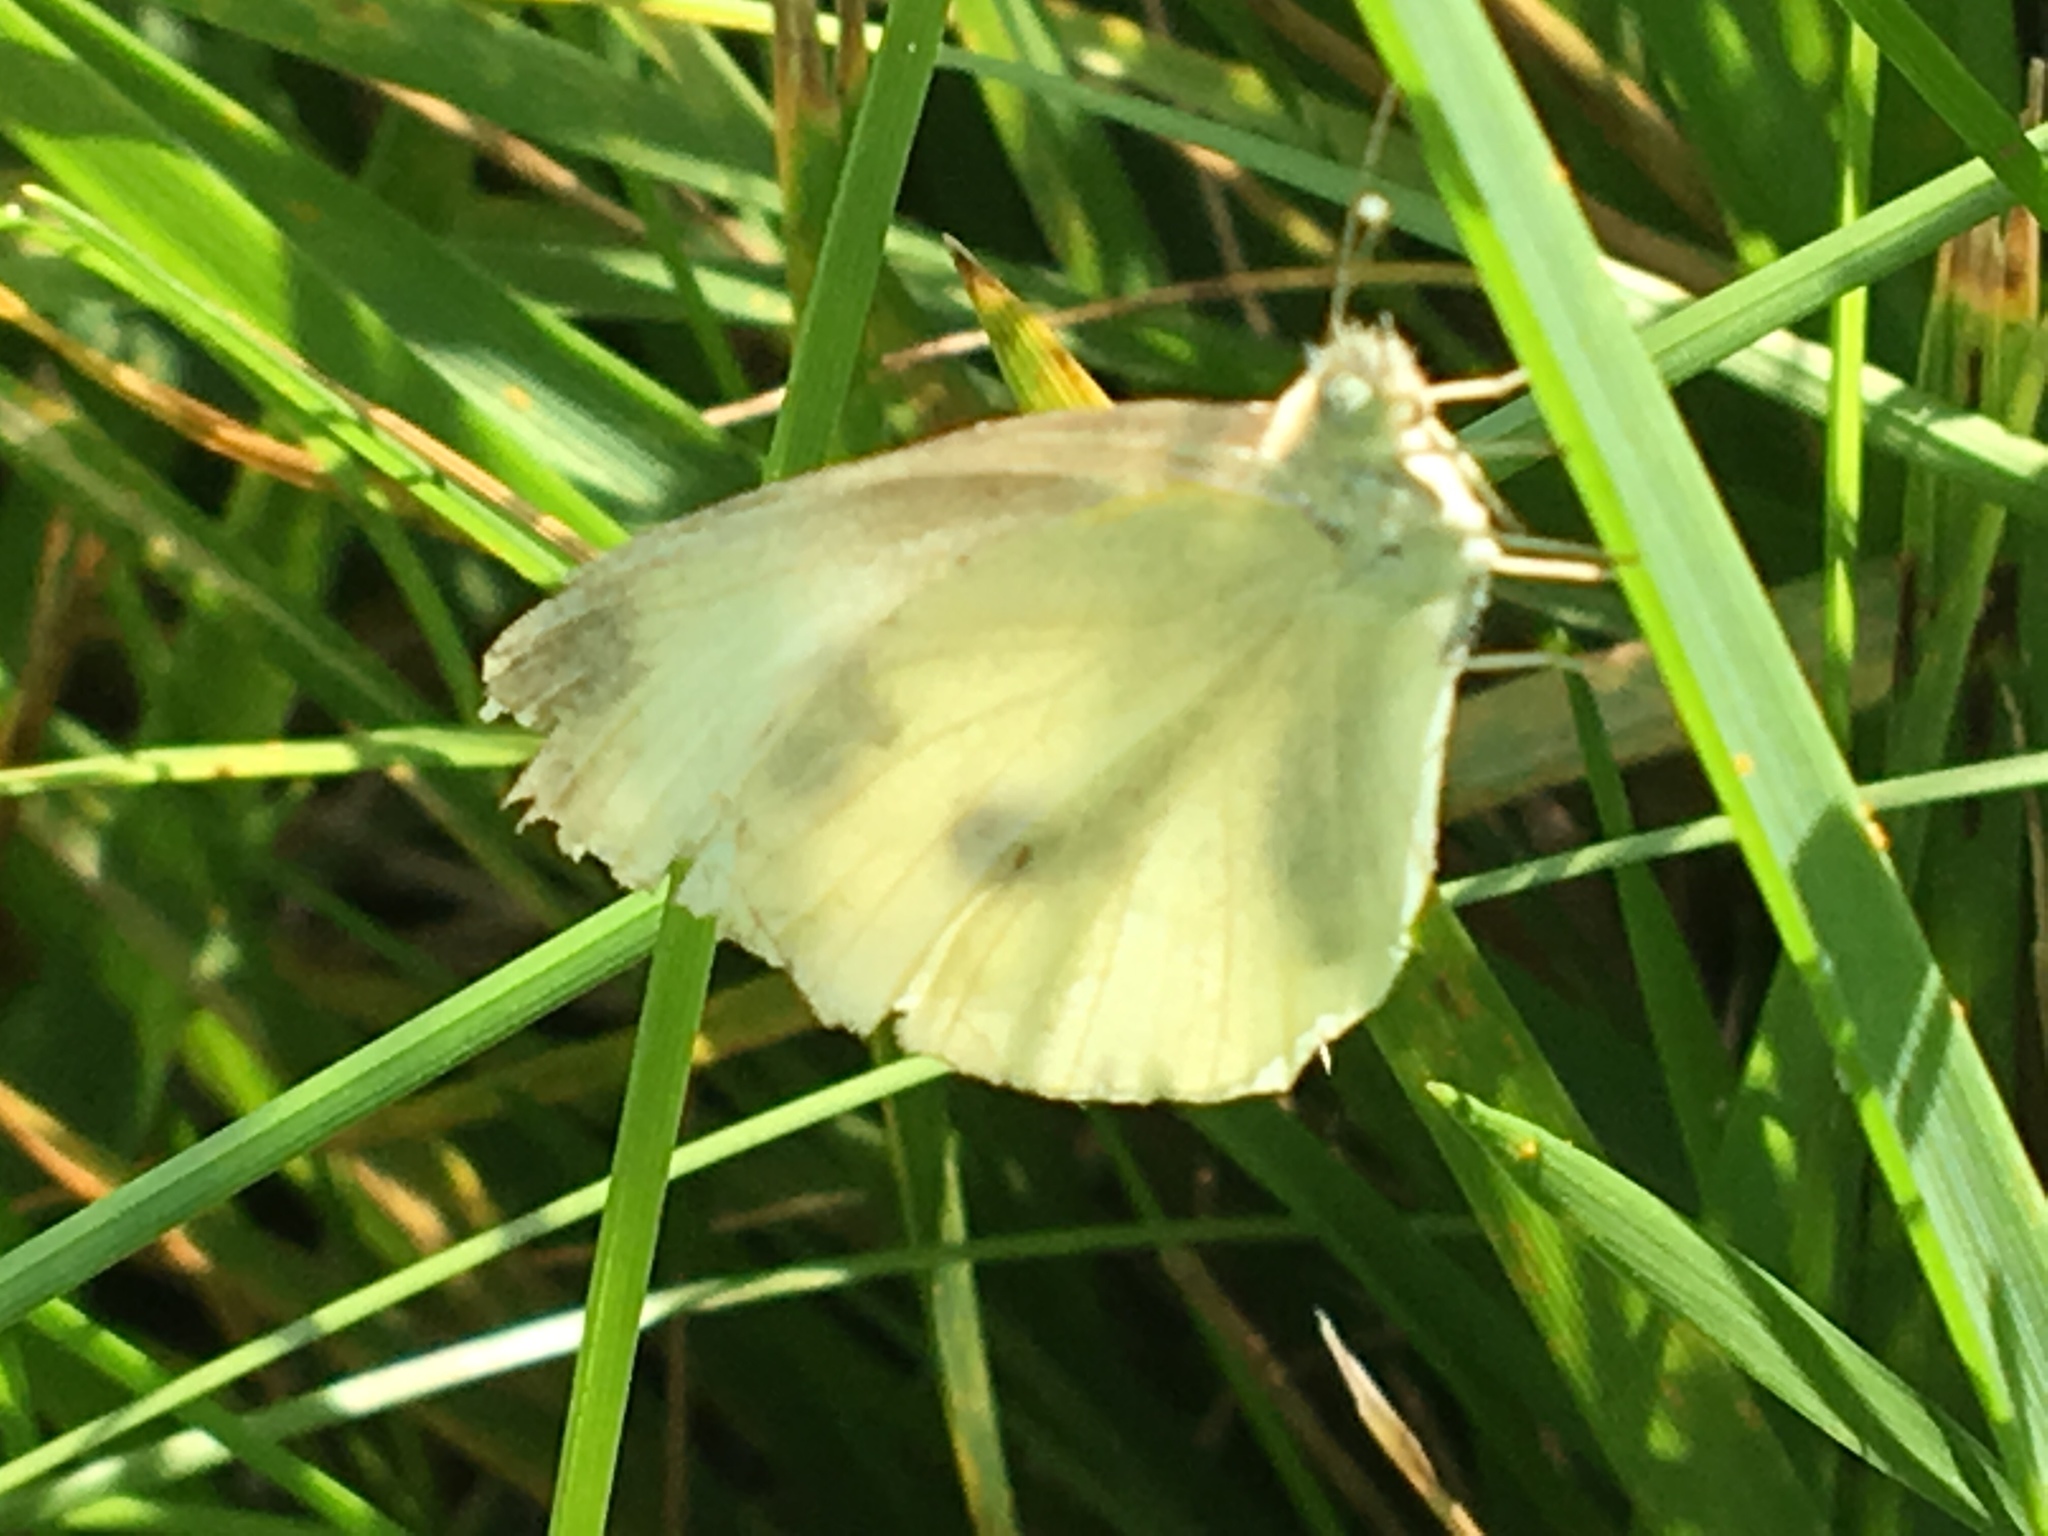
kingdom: Animalia
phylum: Arthropoda
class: Insecta
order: Lepidoptera
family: Pieridae
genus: Pieris
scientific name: Pieris rapae
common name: Small white
